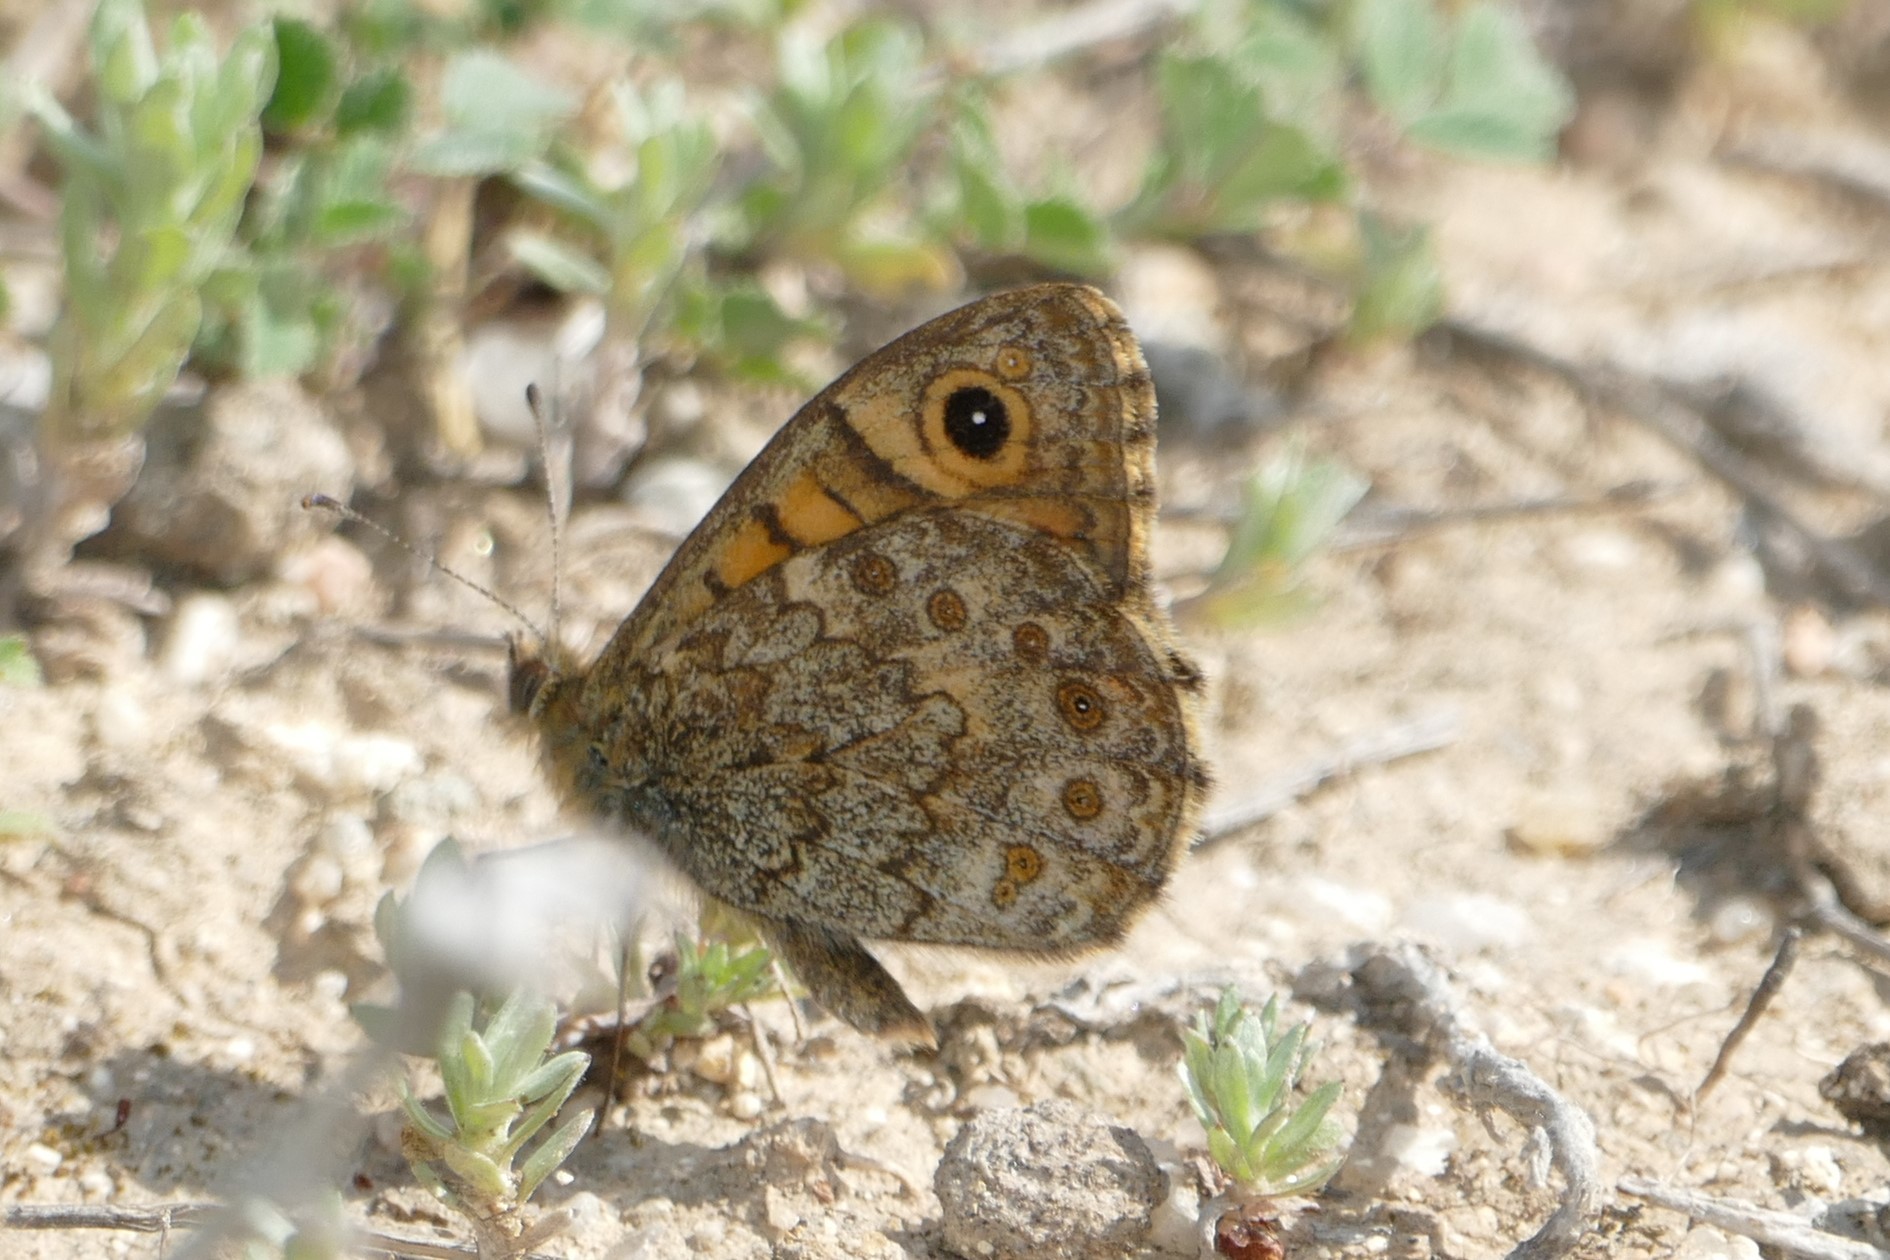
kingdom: Animalia
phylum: Arthropoda
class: Insecta
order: Lepidoptera
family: Nymphalidae
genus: Pararge
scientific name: Pararge Lasiommata megera
